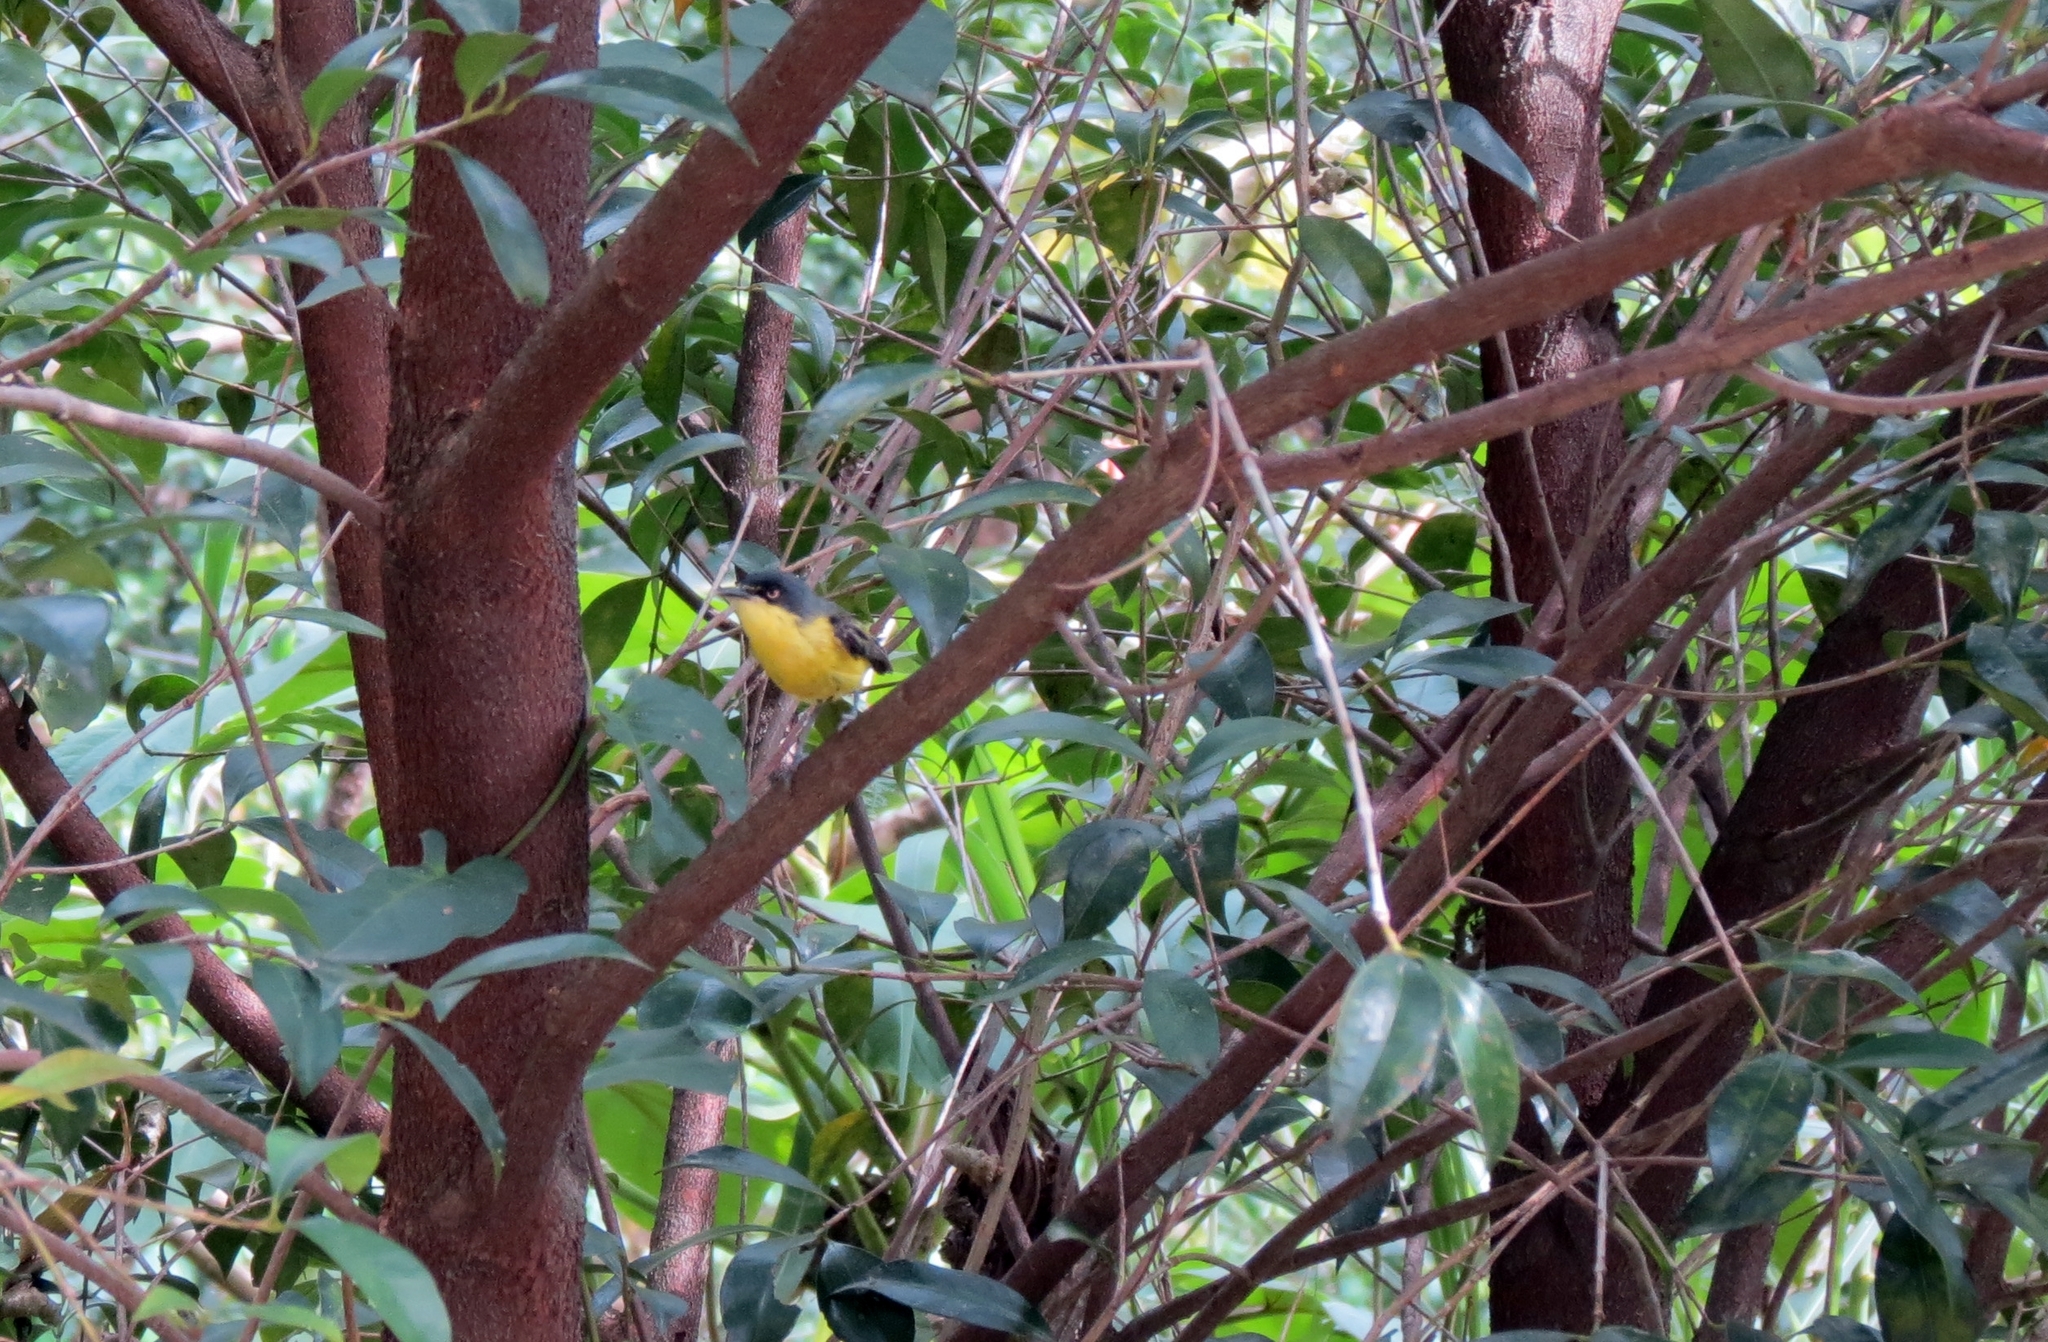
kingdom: Animalia
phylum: Chordata
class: Aves
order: Passeriformes
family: Tyrannidae
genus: Todirostrum
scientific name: Todirostrum cinereum
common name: Common tody-flycatcher
